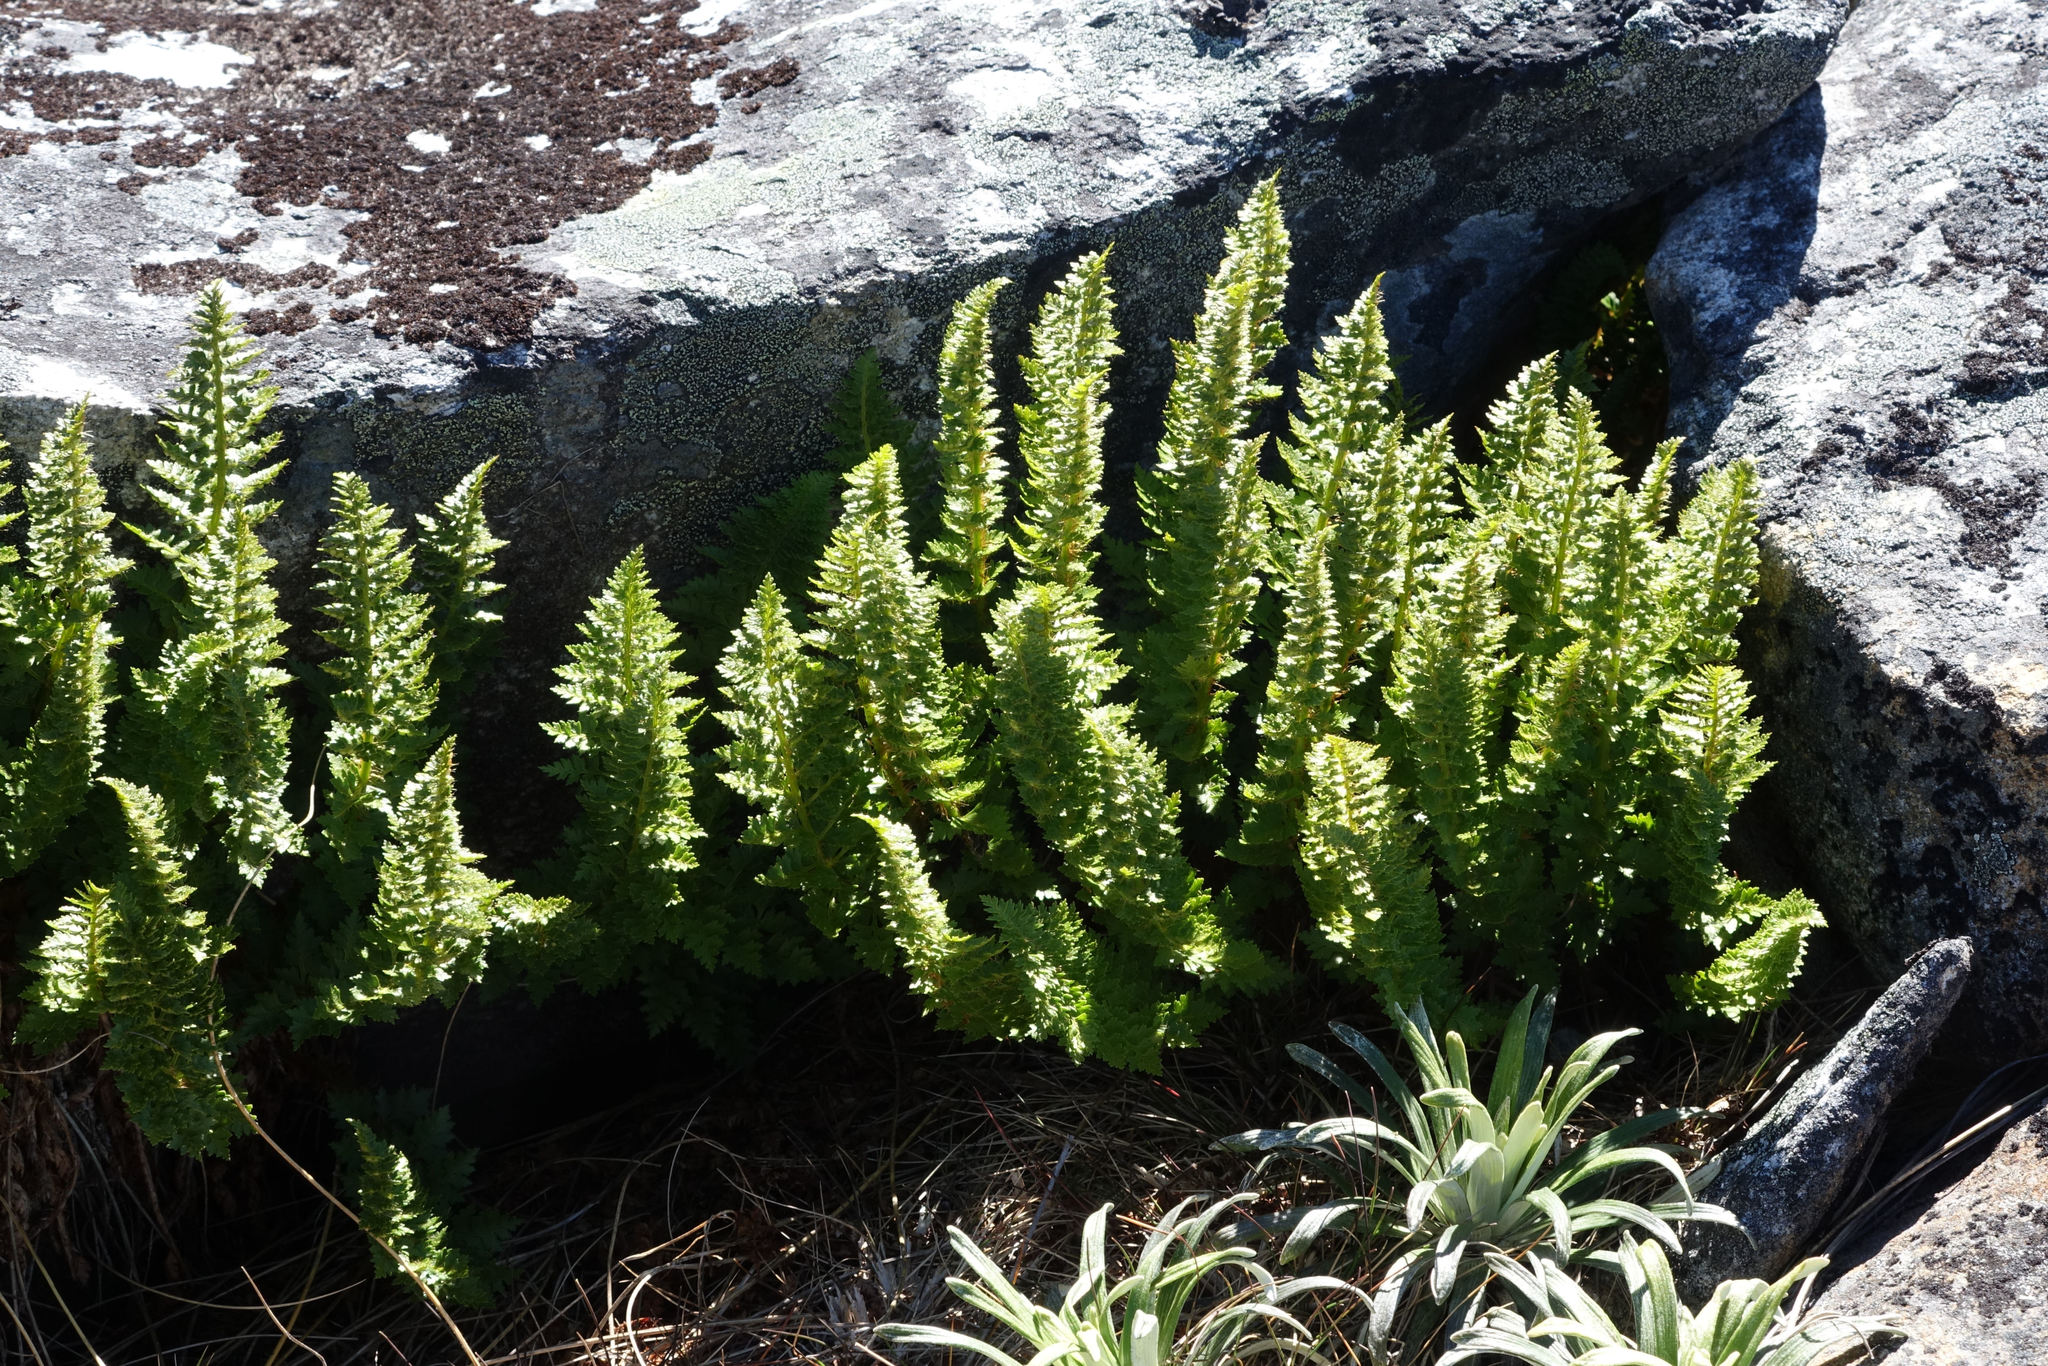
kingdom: Plantae
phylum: Tracheophyta
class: Polypodiopsida
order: Polypodiales
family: Dryopteridaceae
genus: Polystichum
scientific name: Polystichum cystostegia
